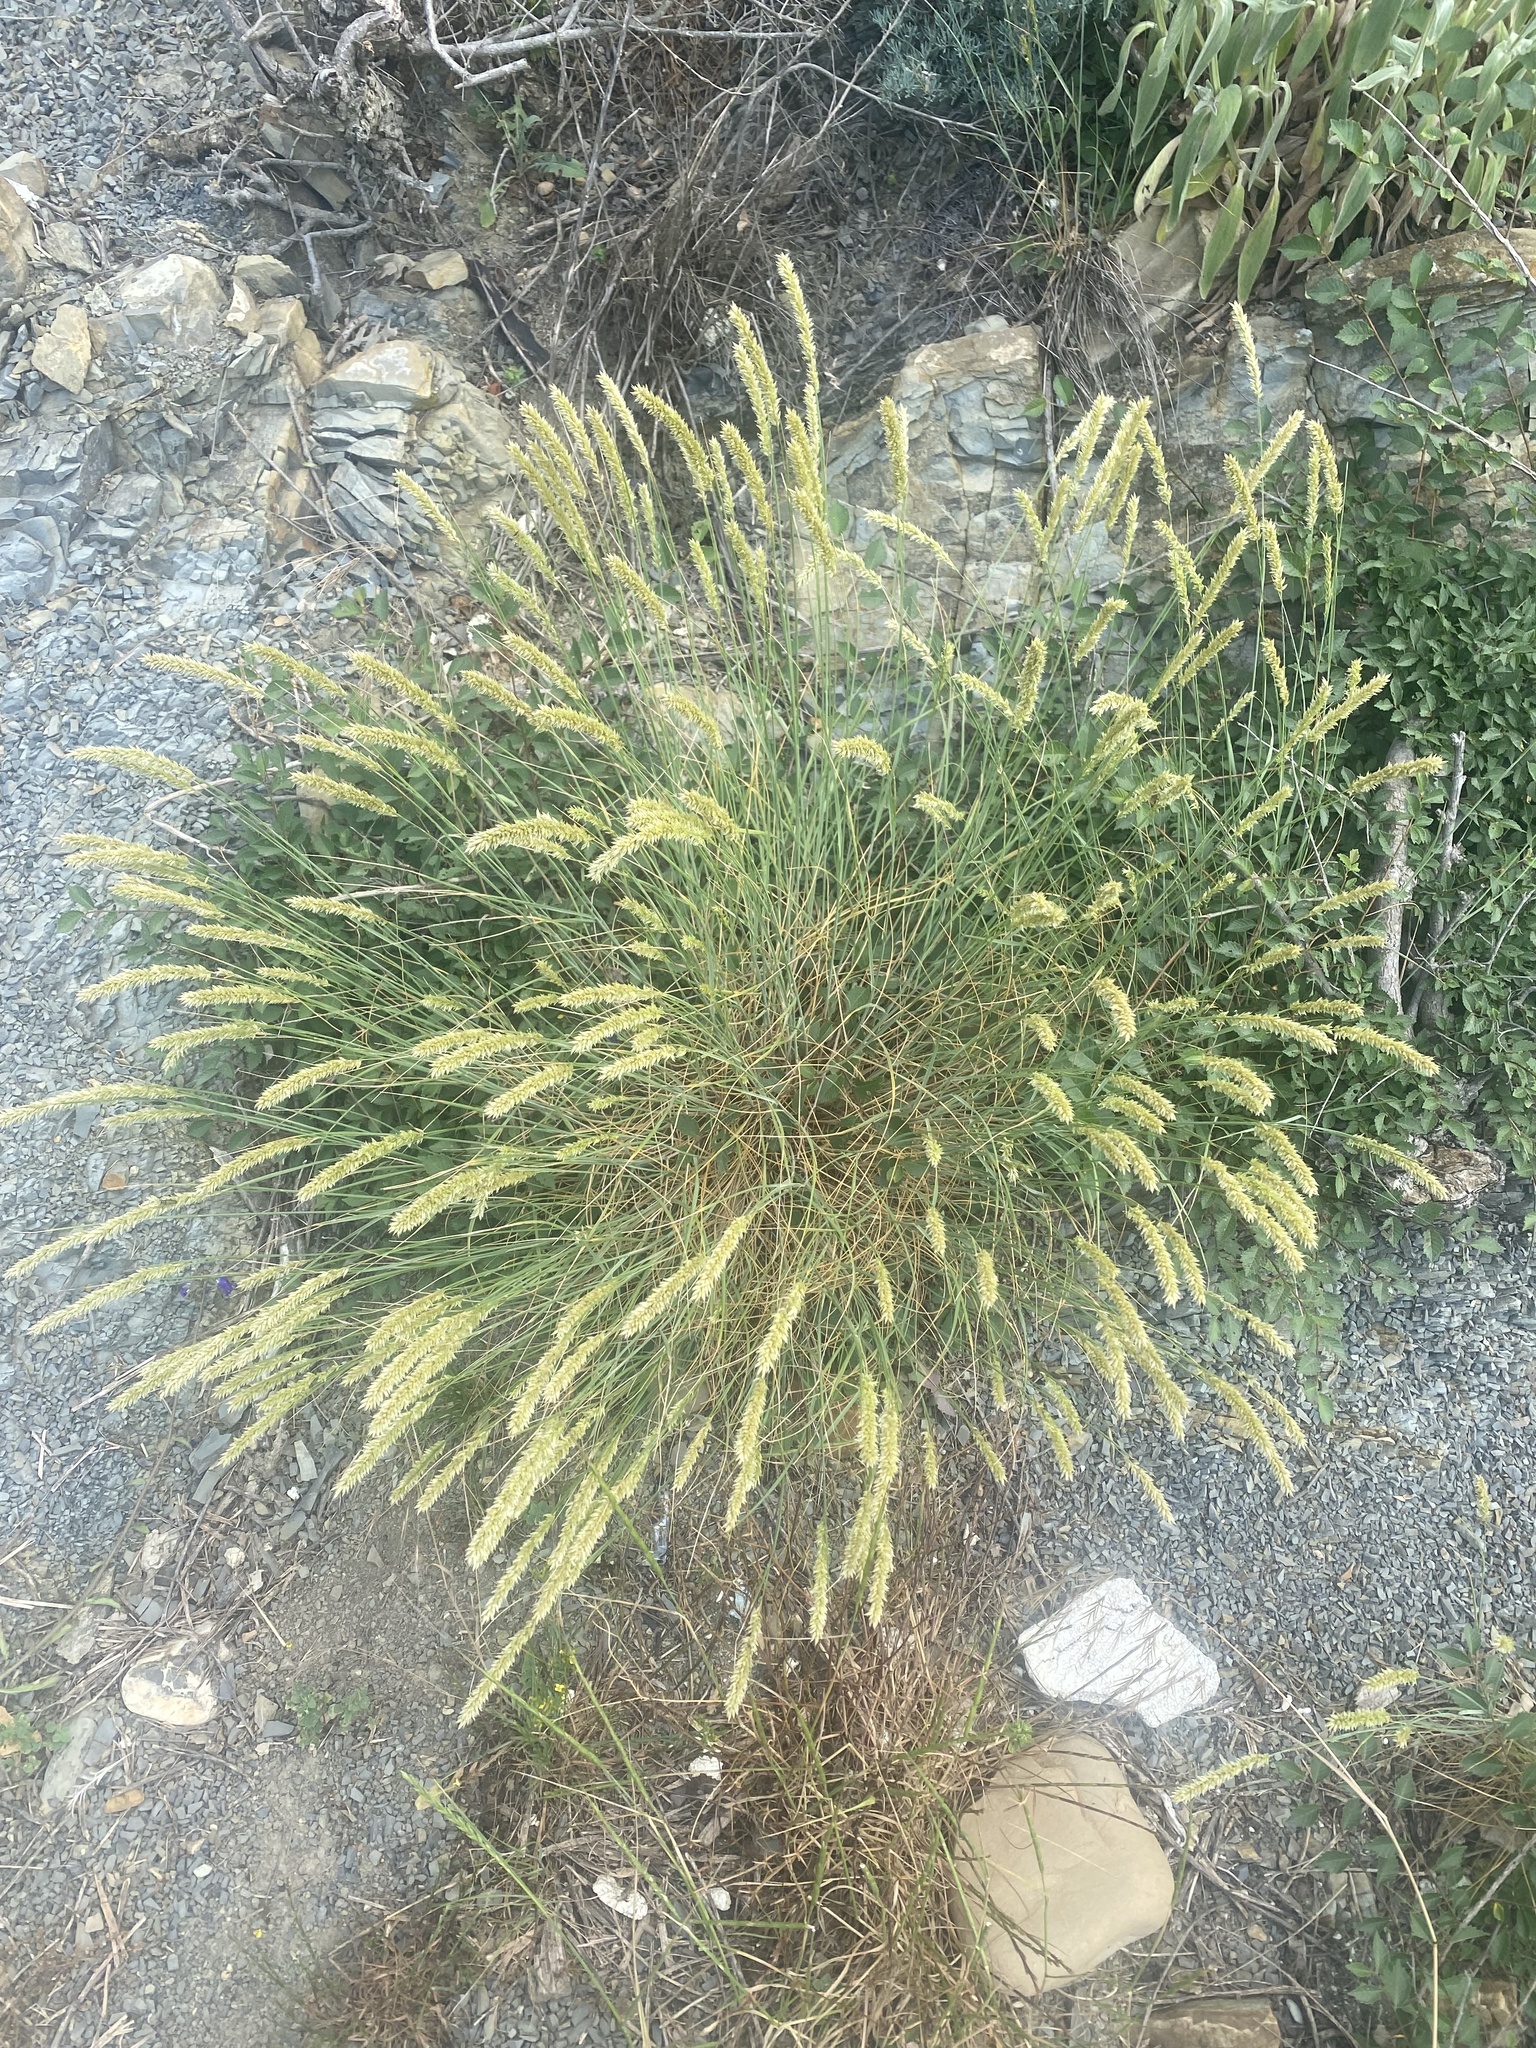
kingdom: Plantae
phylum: Tracheophyta
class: Liliopsida
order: Poales
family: Poaceae
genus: Melica
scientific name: Melica transsilvanica
